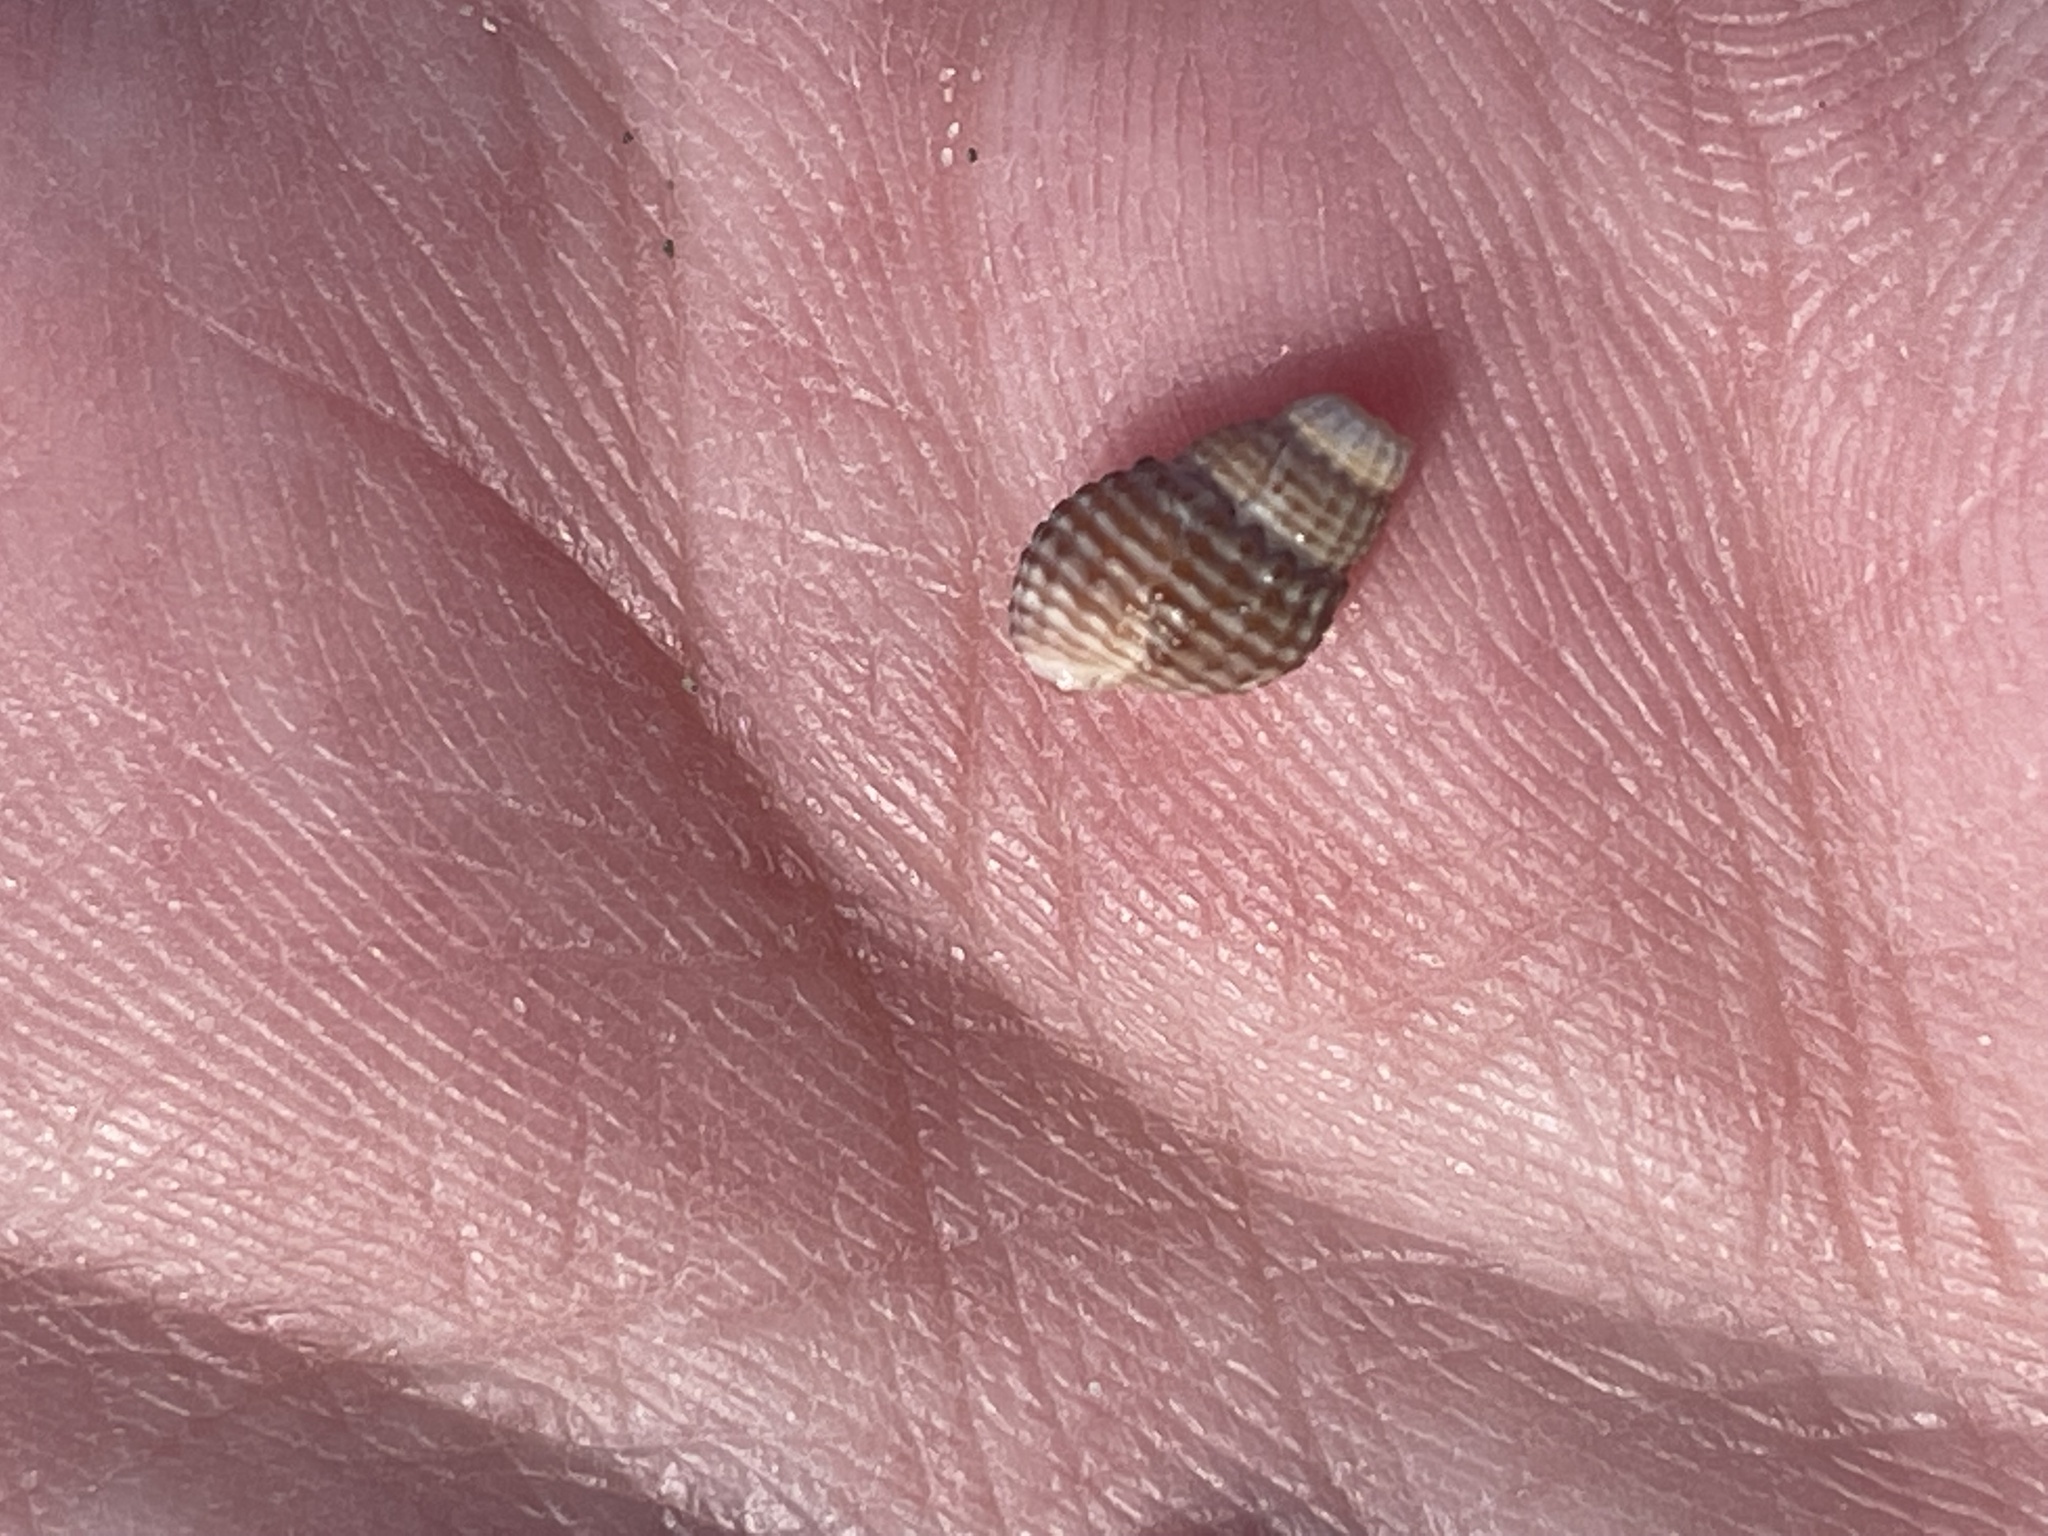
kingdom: Animalia
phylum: Mollusca
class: Gastropoda
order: Neogastropoda
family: Nassariidae
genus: Ilyanassa
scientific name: Ilyanassa trivittata
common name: Three-line mudsnail
